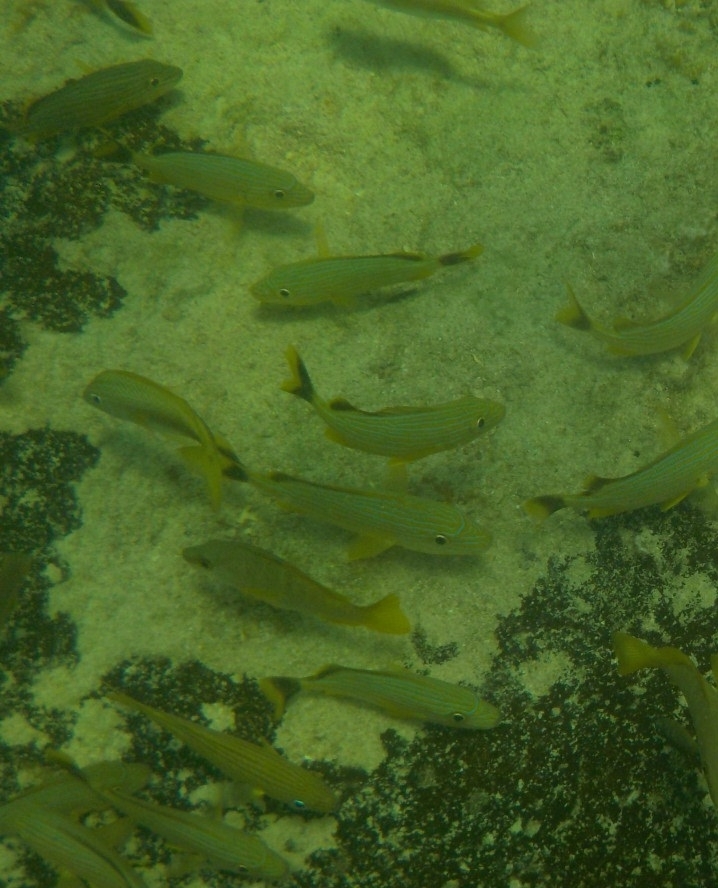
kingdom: Animalia
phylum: Chordata
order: Perciformes
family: Haemulidae
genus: Haemulon
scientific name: Haemulon sciurus
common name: Bluestriped grunt
